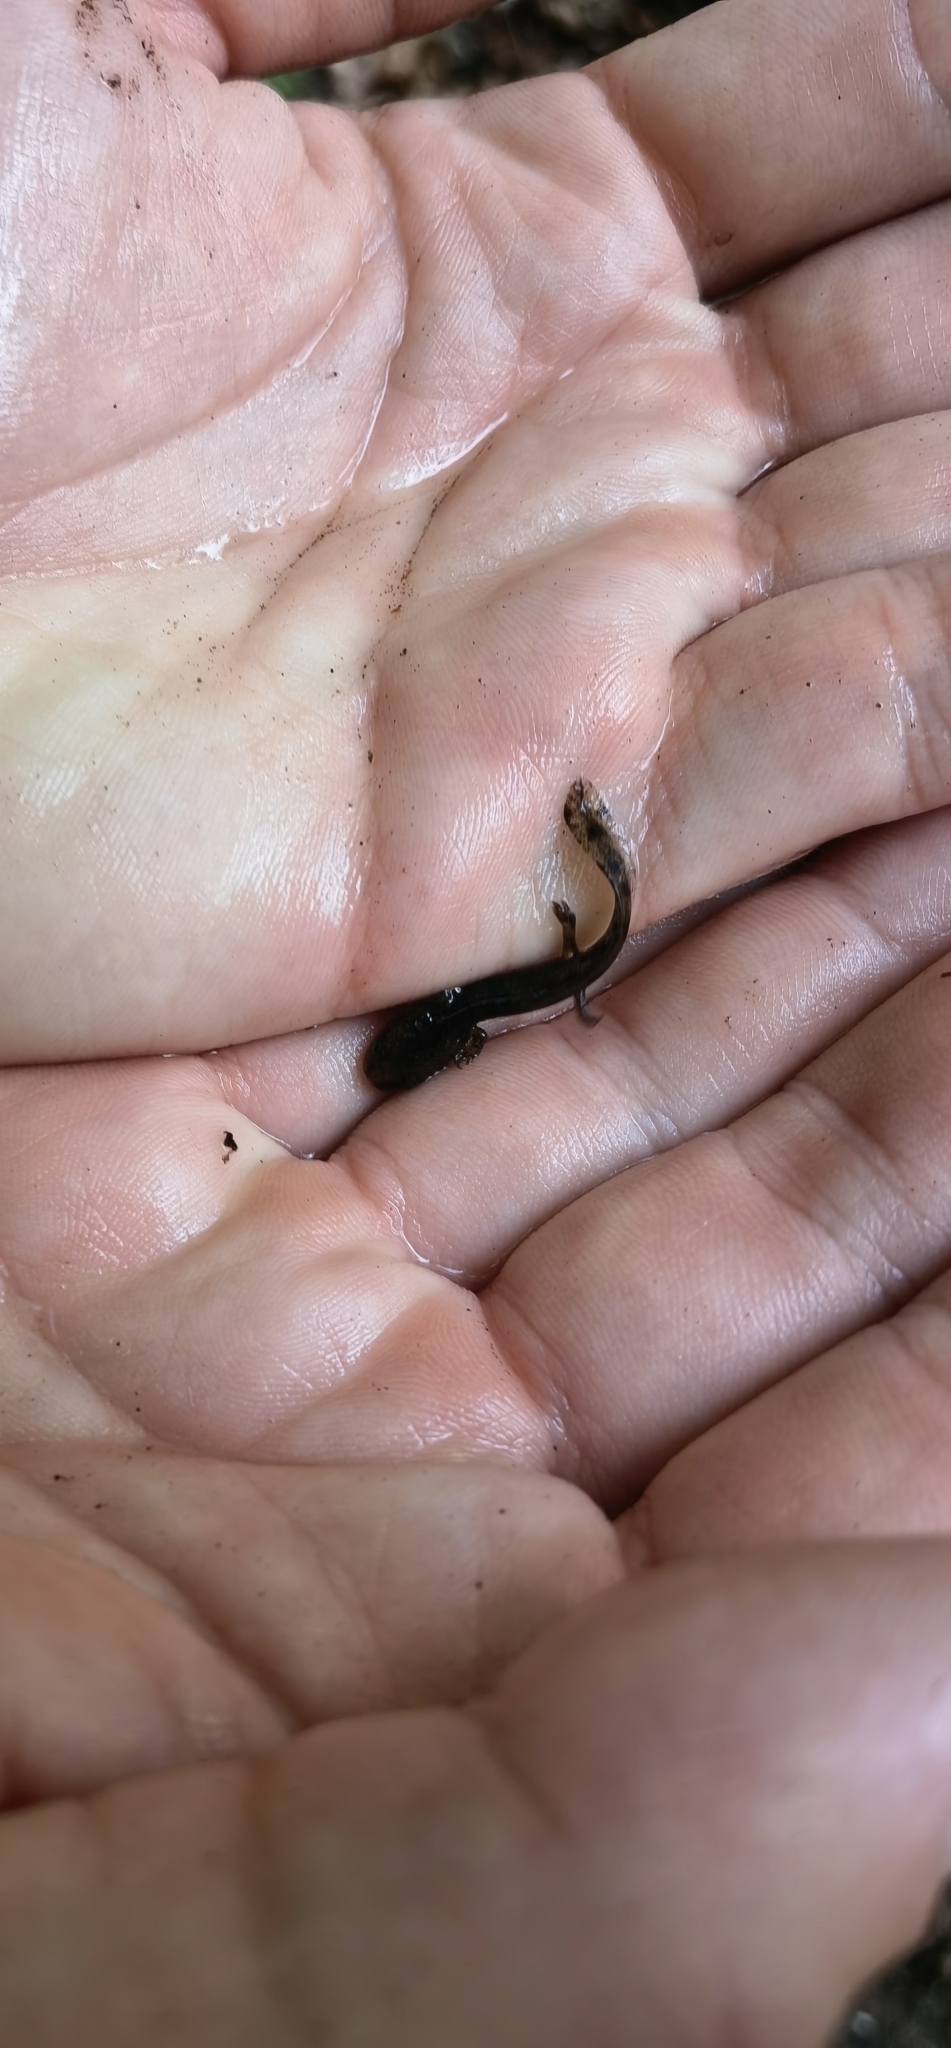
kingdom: Animalia
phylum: Chordata
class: Amphibia
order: Caudata
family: Salamandridae
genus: Salamandra
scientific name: Salamandra salamandra
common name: Fire salamander
